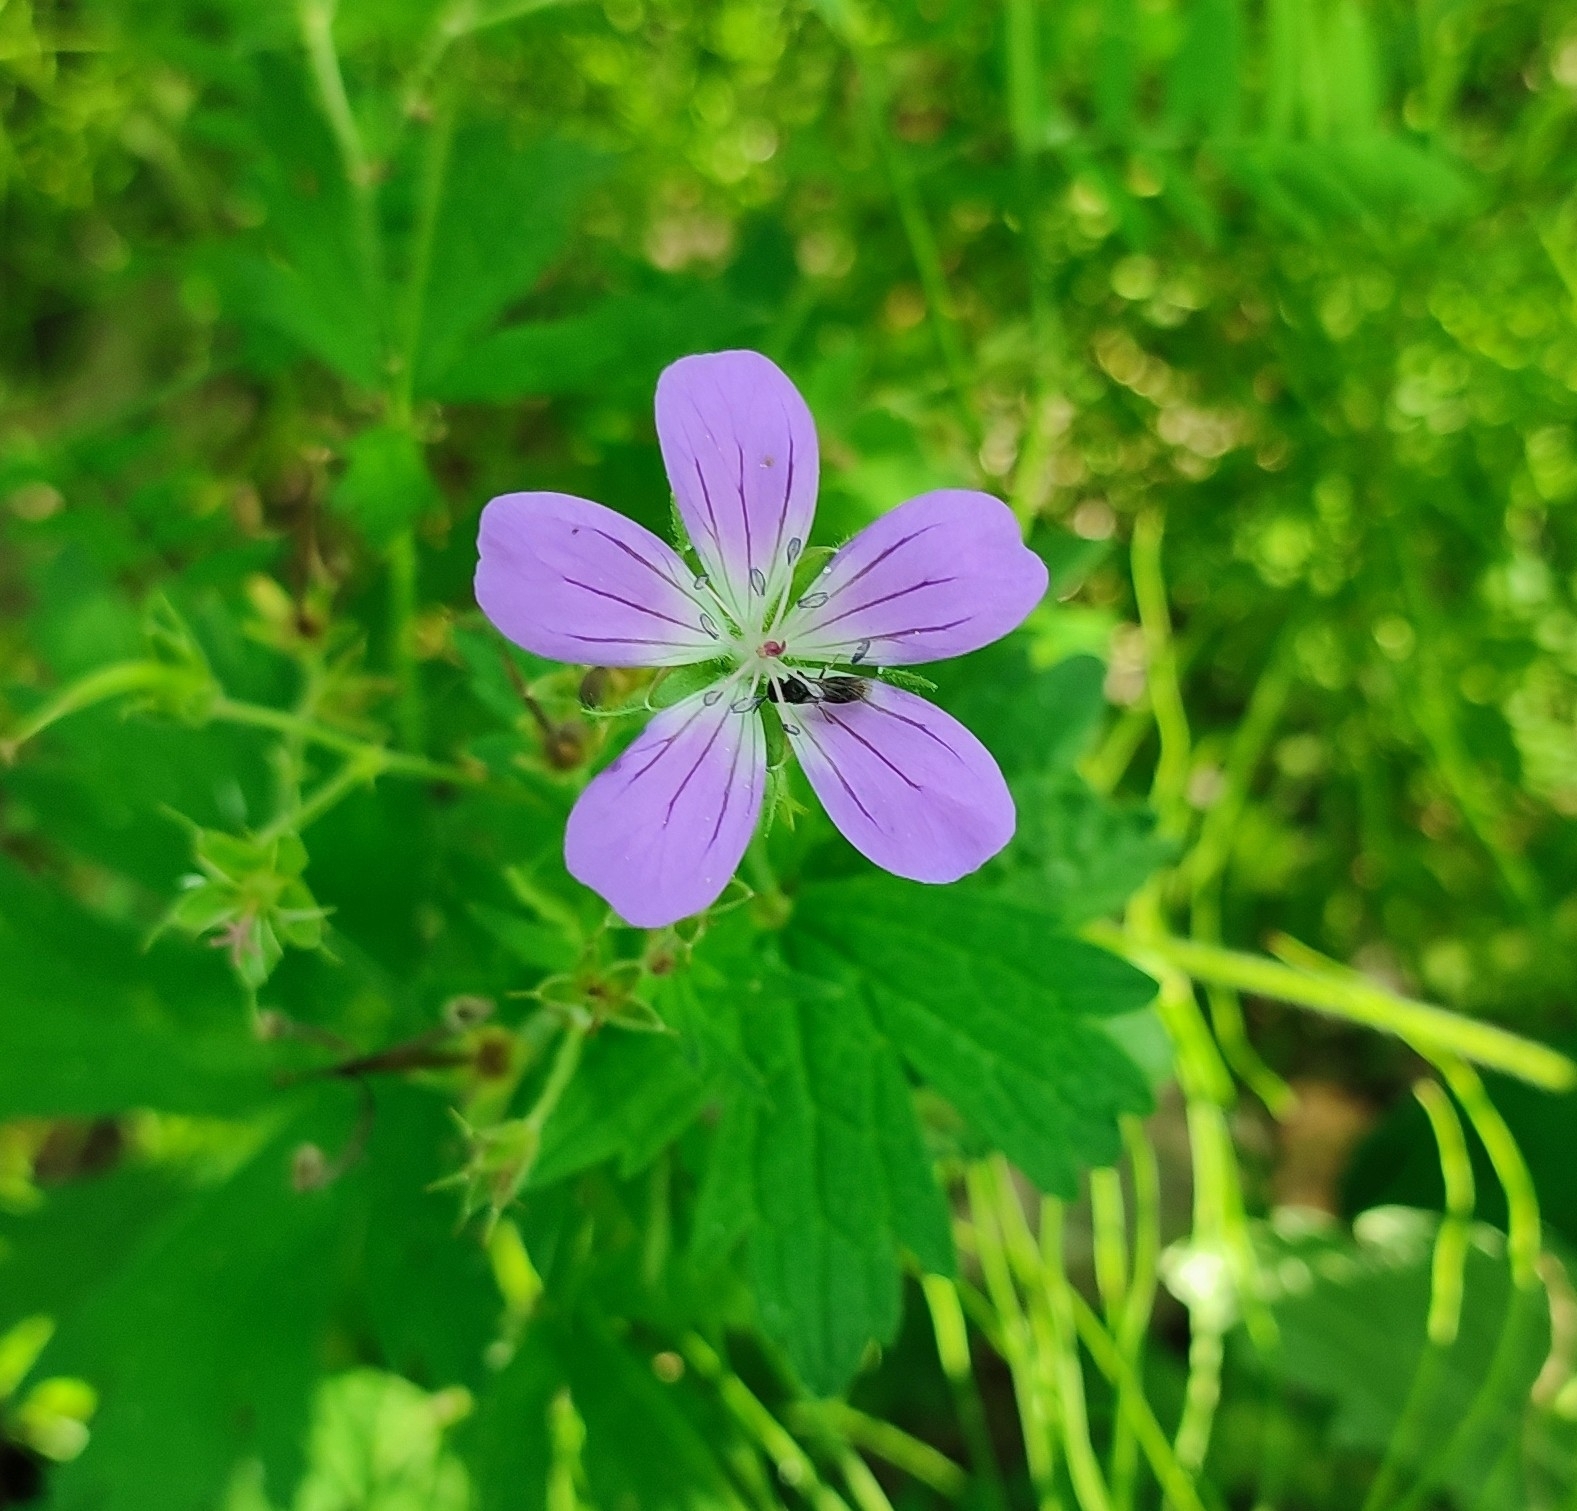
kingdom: Plantae
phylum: Tracheophyta
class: Magnoliopsida
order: Geraniales
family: Geraniaceae
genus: Geranium
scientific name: Geranium sylvaticum
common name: Wood crane's-bill
